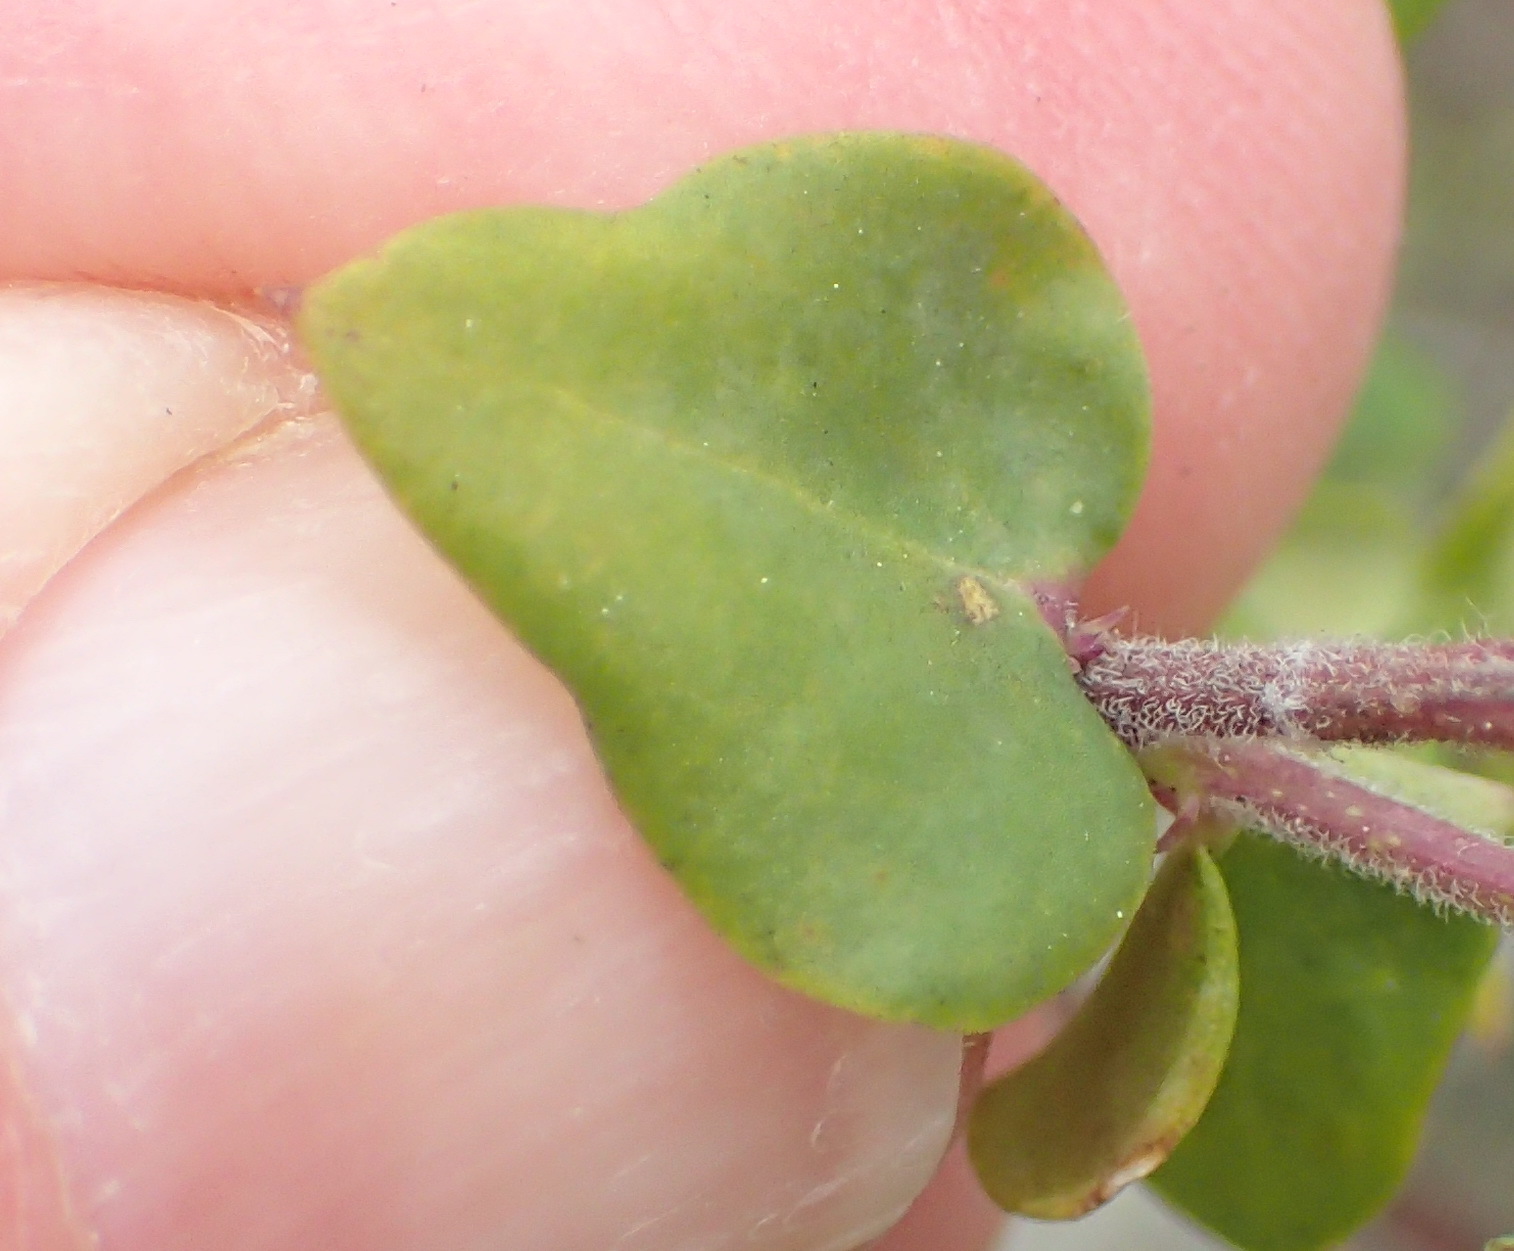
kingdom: Plantae
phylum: Tracheophyta
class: Magnoliopsida
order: Fabales
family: Polygalaceae
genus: Polygala
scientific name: Polygala fruticosa
